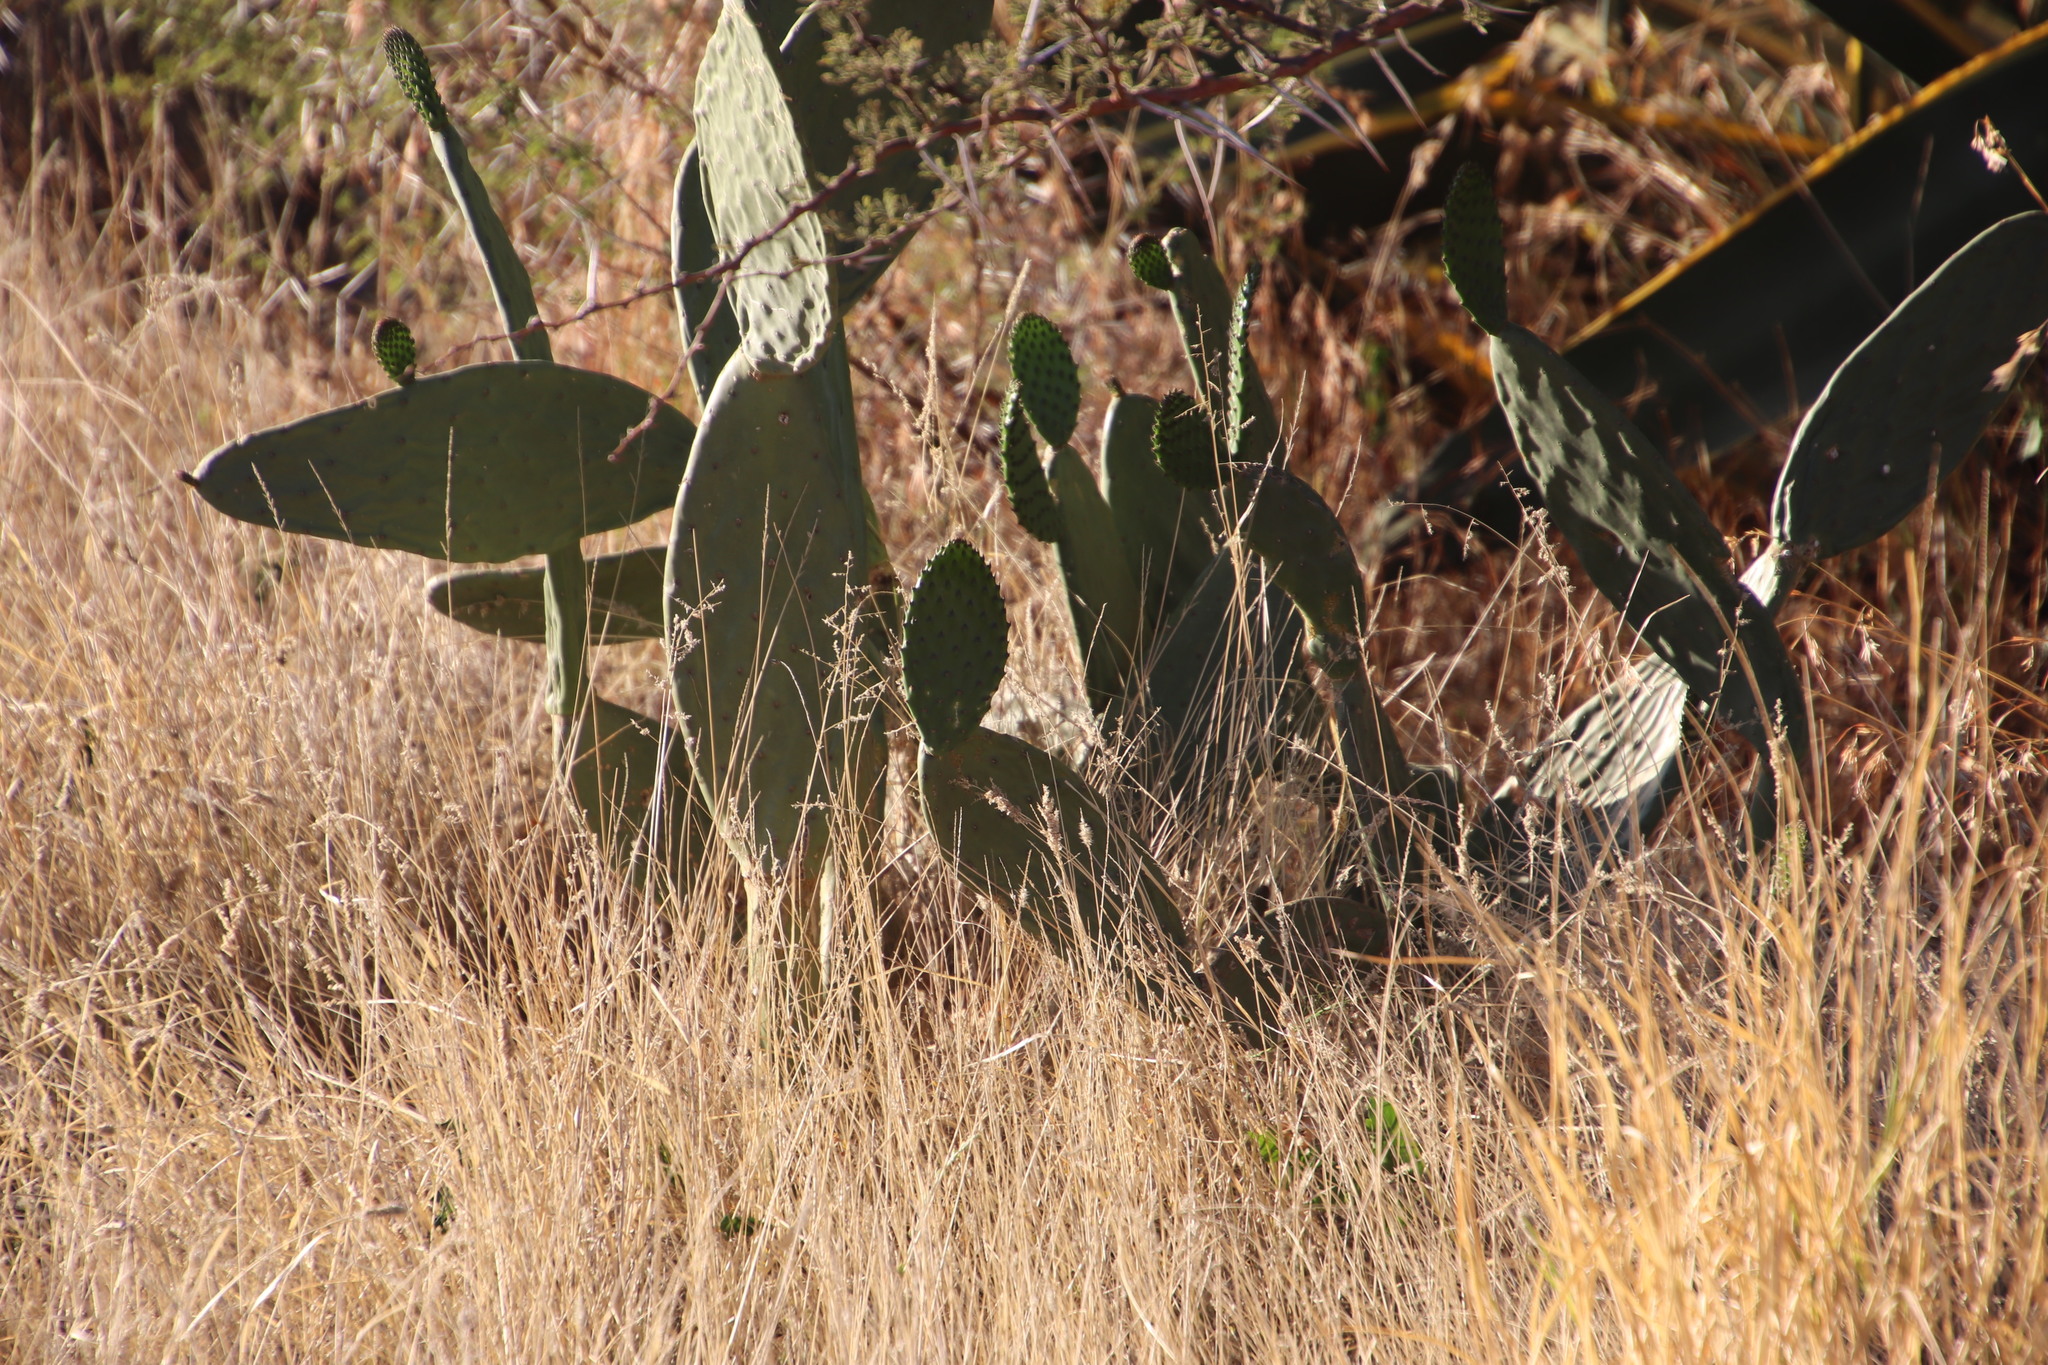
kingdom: Plantae
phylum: Tracheophyta
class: Magnoliopsida
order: Caryophyllales
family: Cactaceae
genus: Opuntia
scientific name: Opuntia ficus-indica
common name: Barbary fig
